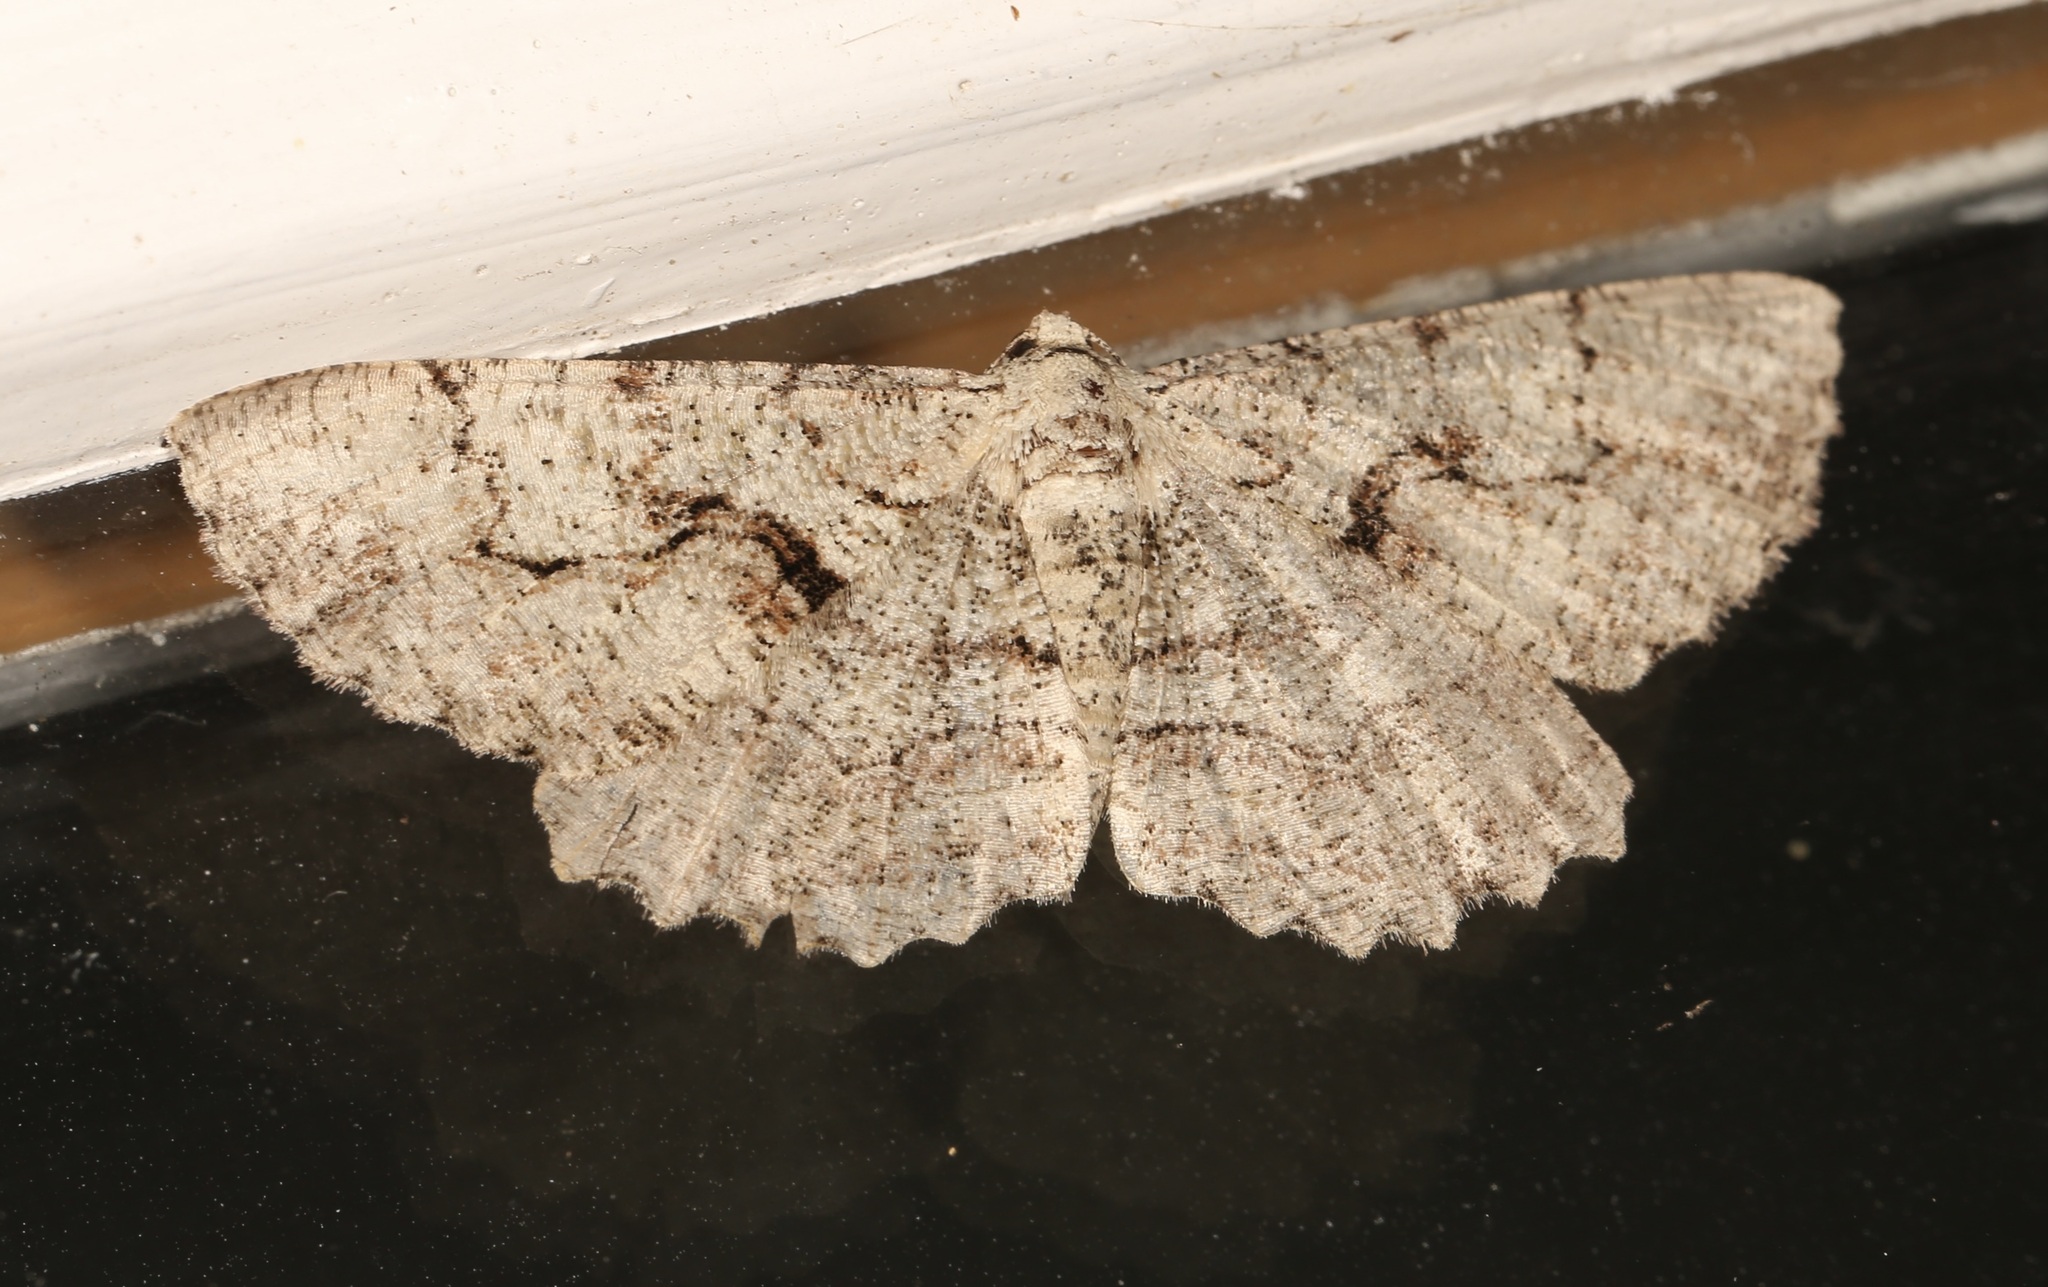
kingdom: Animalia
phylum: Arthropoda
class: Insecta
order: Lepidoptera
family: Geometridae
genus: Cymatophora
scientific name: Cymatophora approximaria
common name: Giant gray moth
